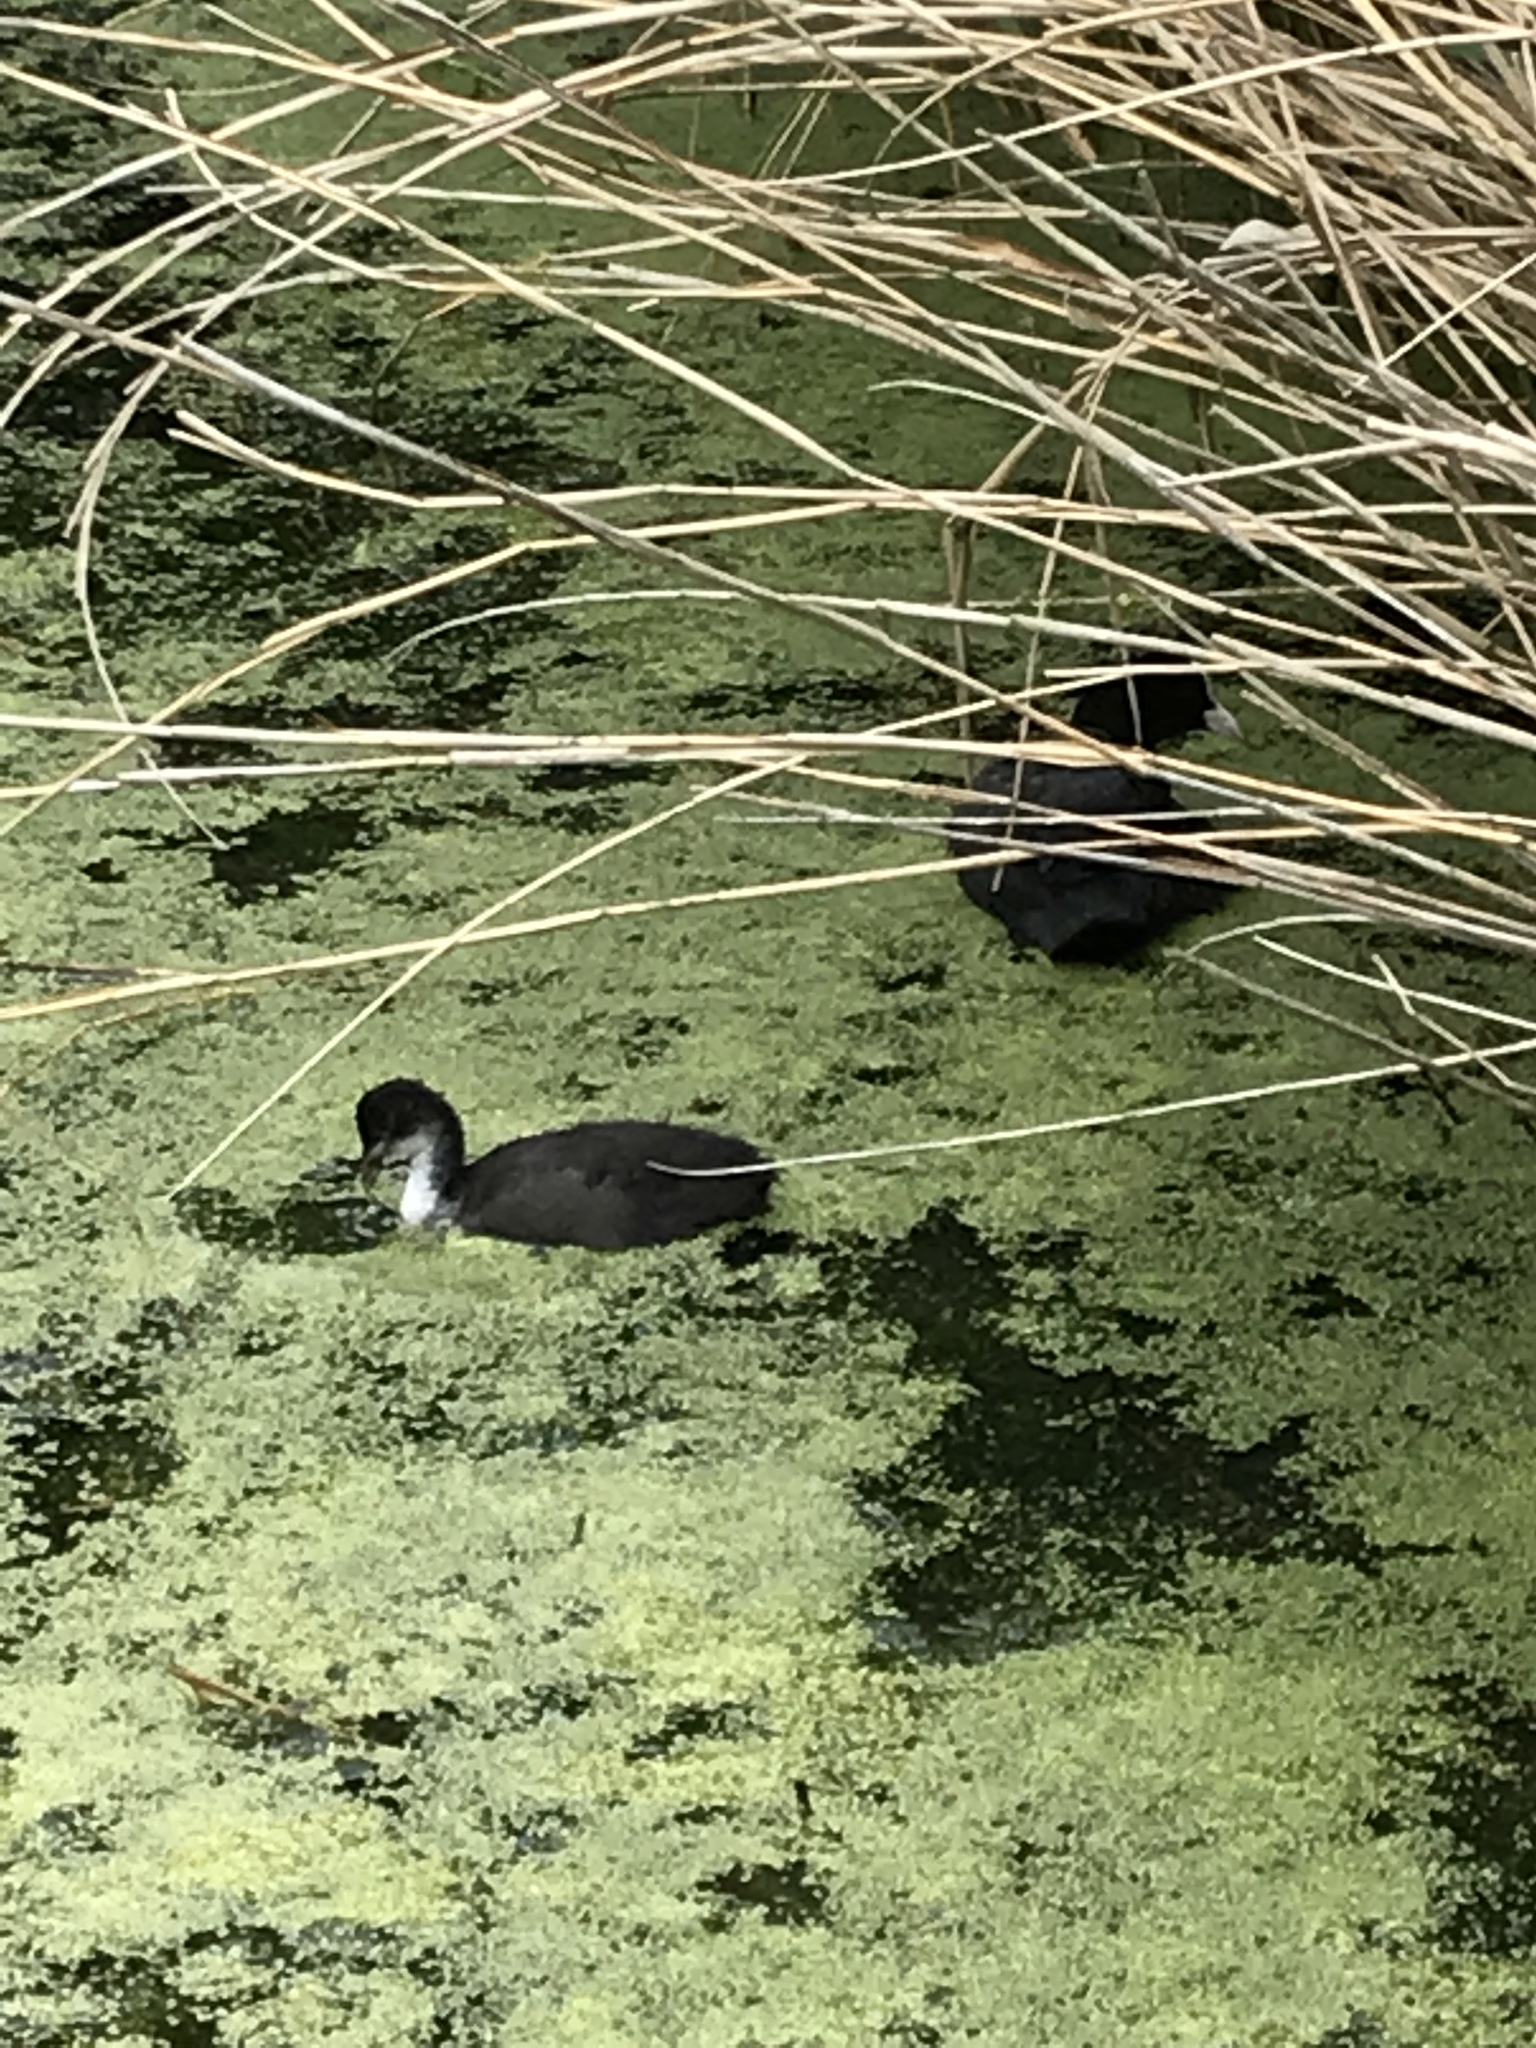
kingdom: Animalia
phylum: Chordata
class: Aves
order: Gruiformes
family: Rallidae
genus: Fulica
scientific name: Fulica atra
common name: Eurasian coot
